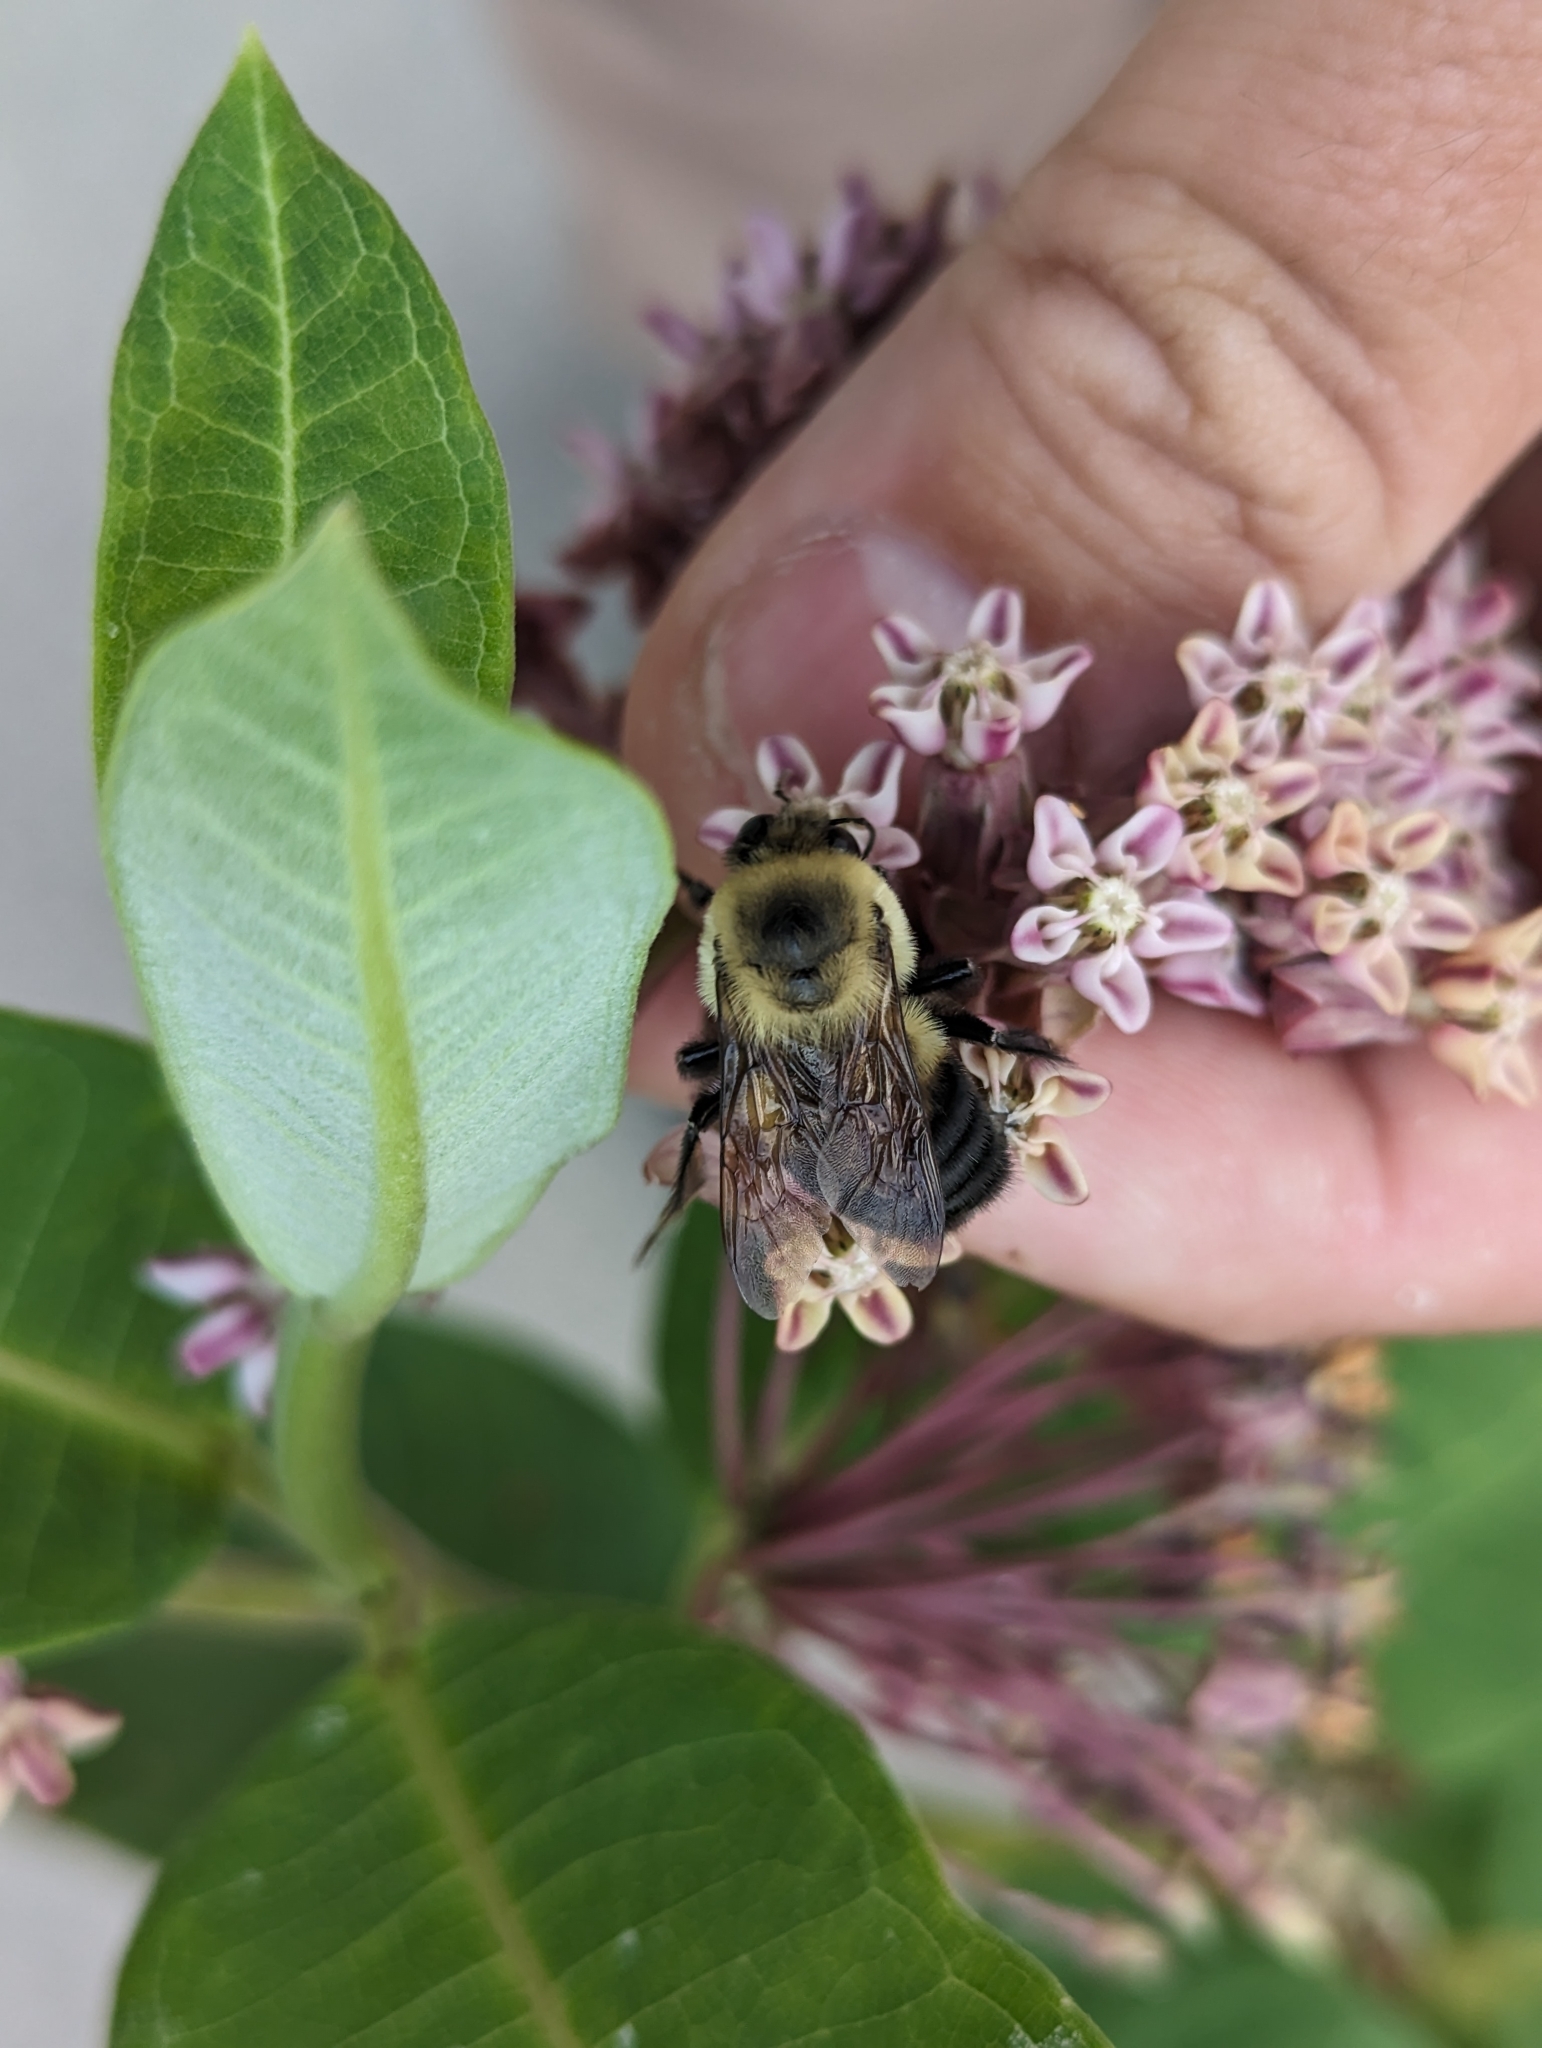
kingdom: Animalia
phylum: Arthropoda
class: Insecta
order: Hymenoptera
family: Apidae
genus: Bombus
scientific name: Bombus impatiens
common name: Common eastern bumble bee
